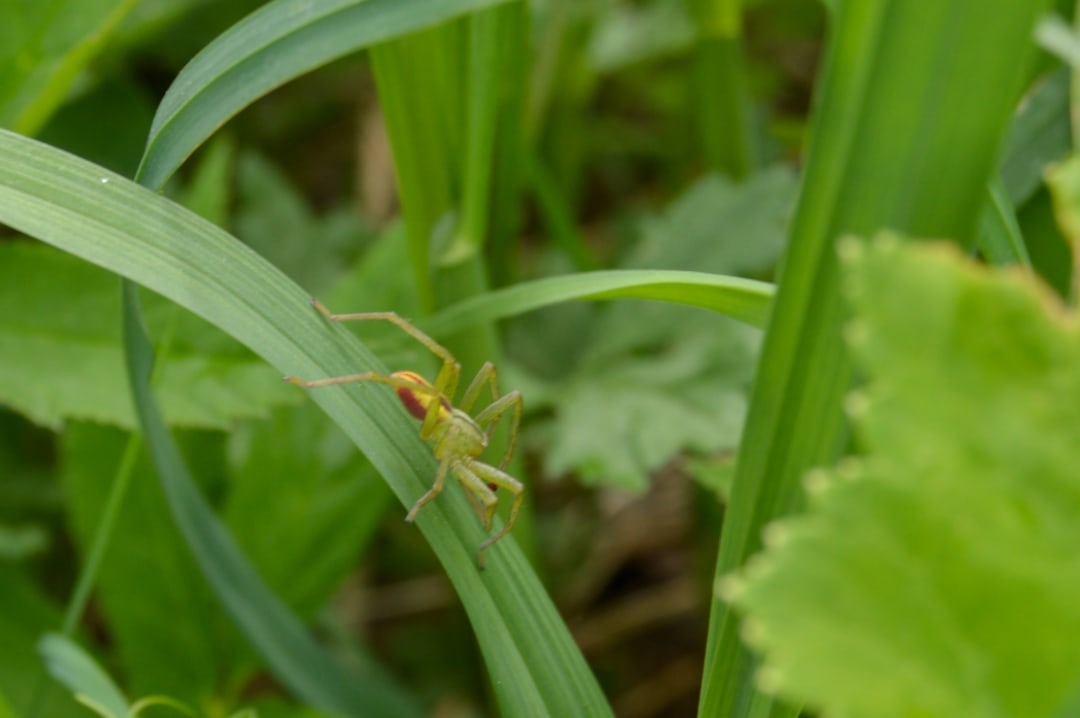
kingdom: Animalia
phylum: Arthropoda
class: Arachnida
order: Araneae
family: Sparassidae
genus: Micrommata
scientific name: Micrommata virescens
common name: Green spider
